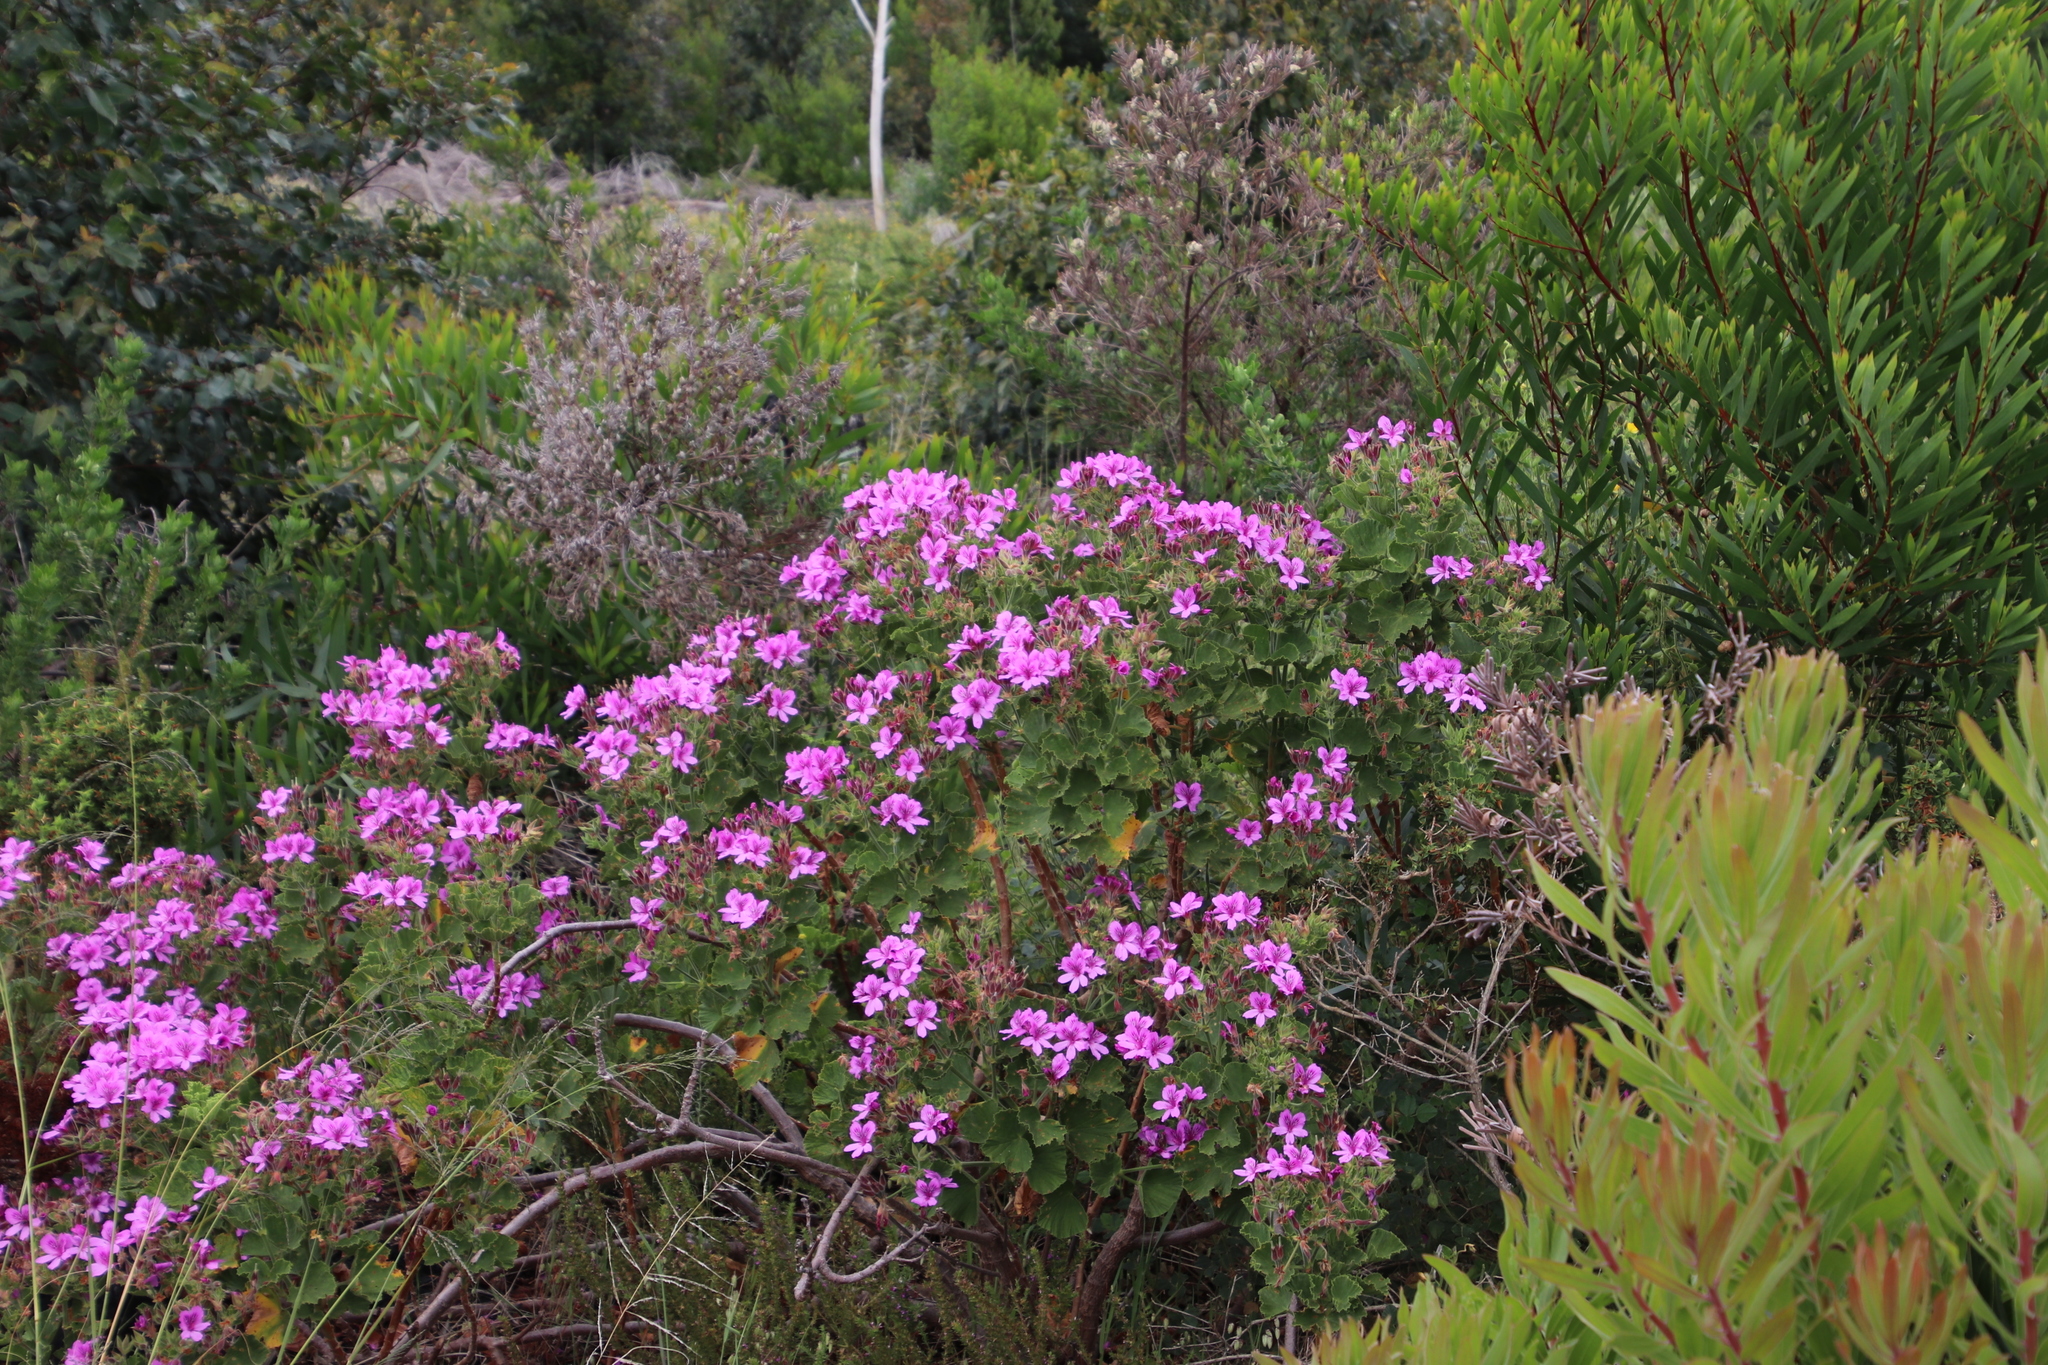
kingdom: Plantae
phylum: Tracheophyta
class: Magnoliopsida
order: Geraniales
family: Geraniaceae
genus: Pelargonium
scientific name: Pelargonium cucullatum
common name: Tree pelargonium
